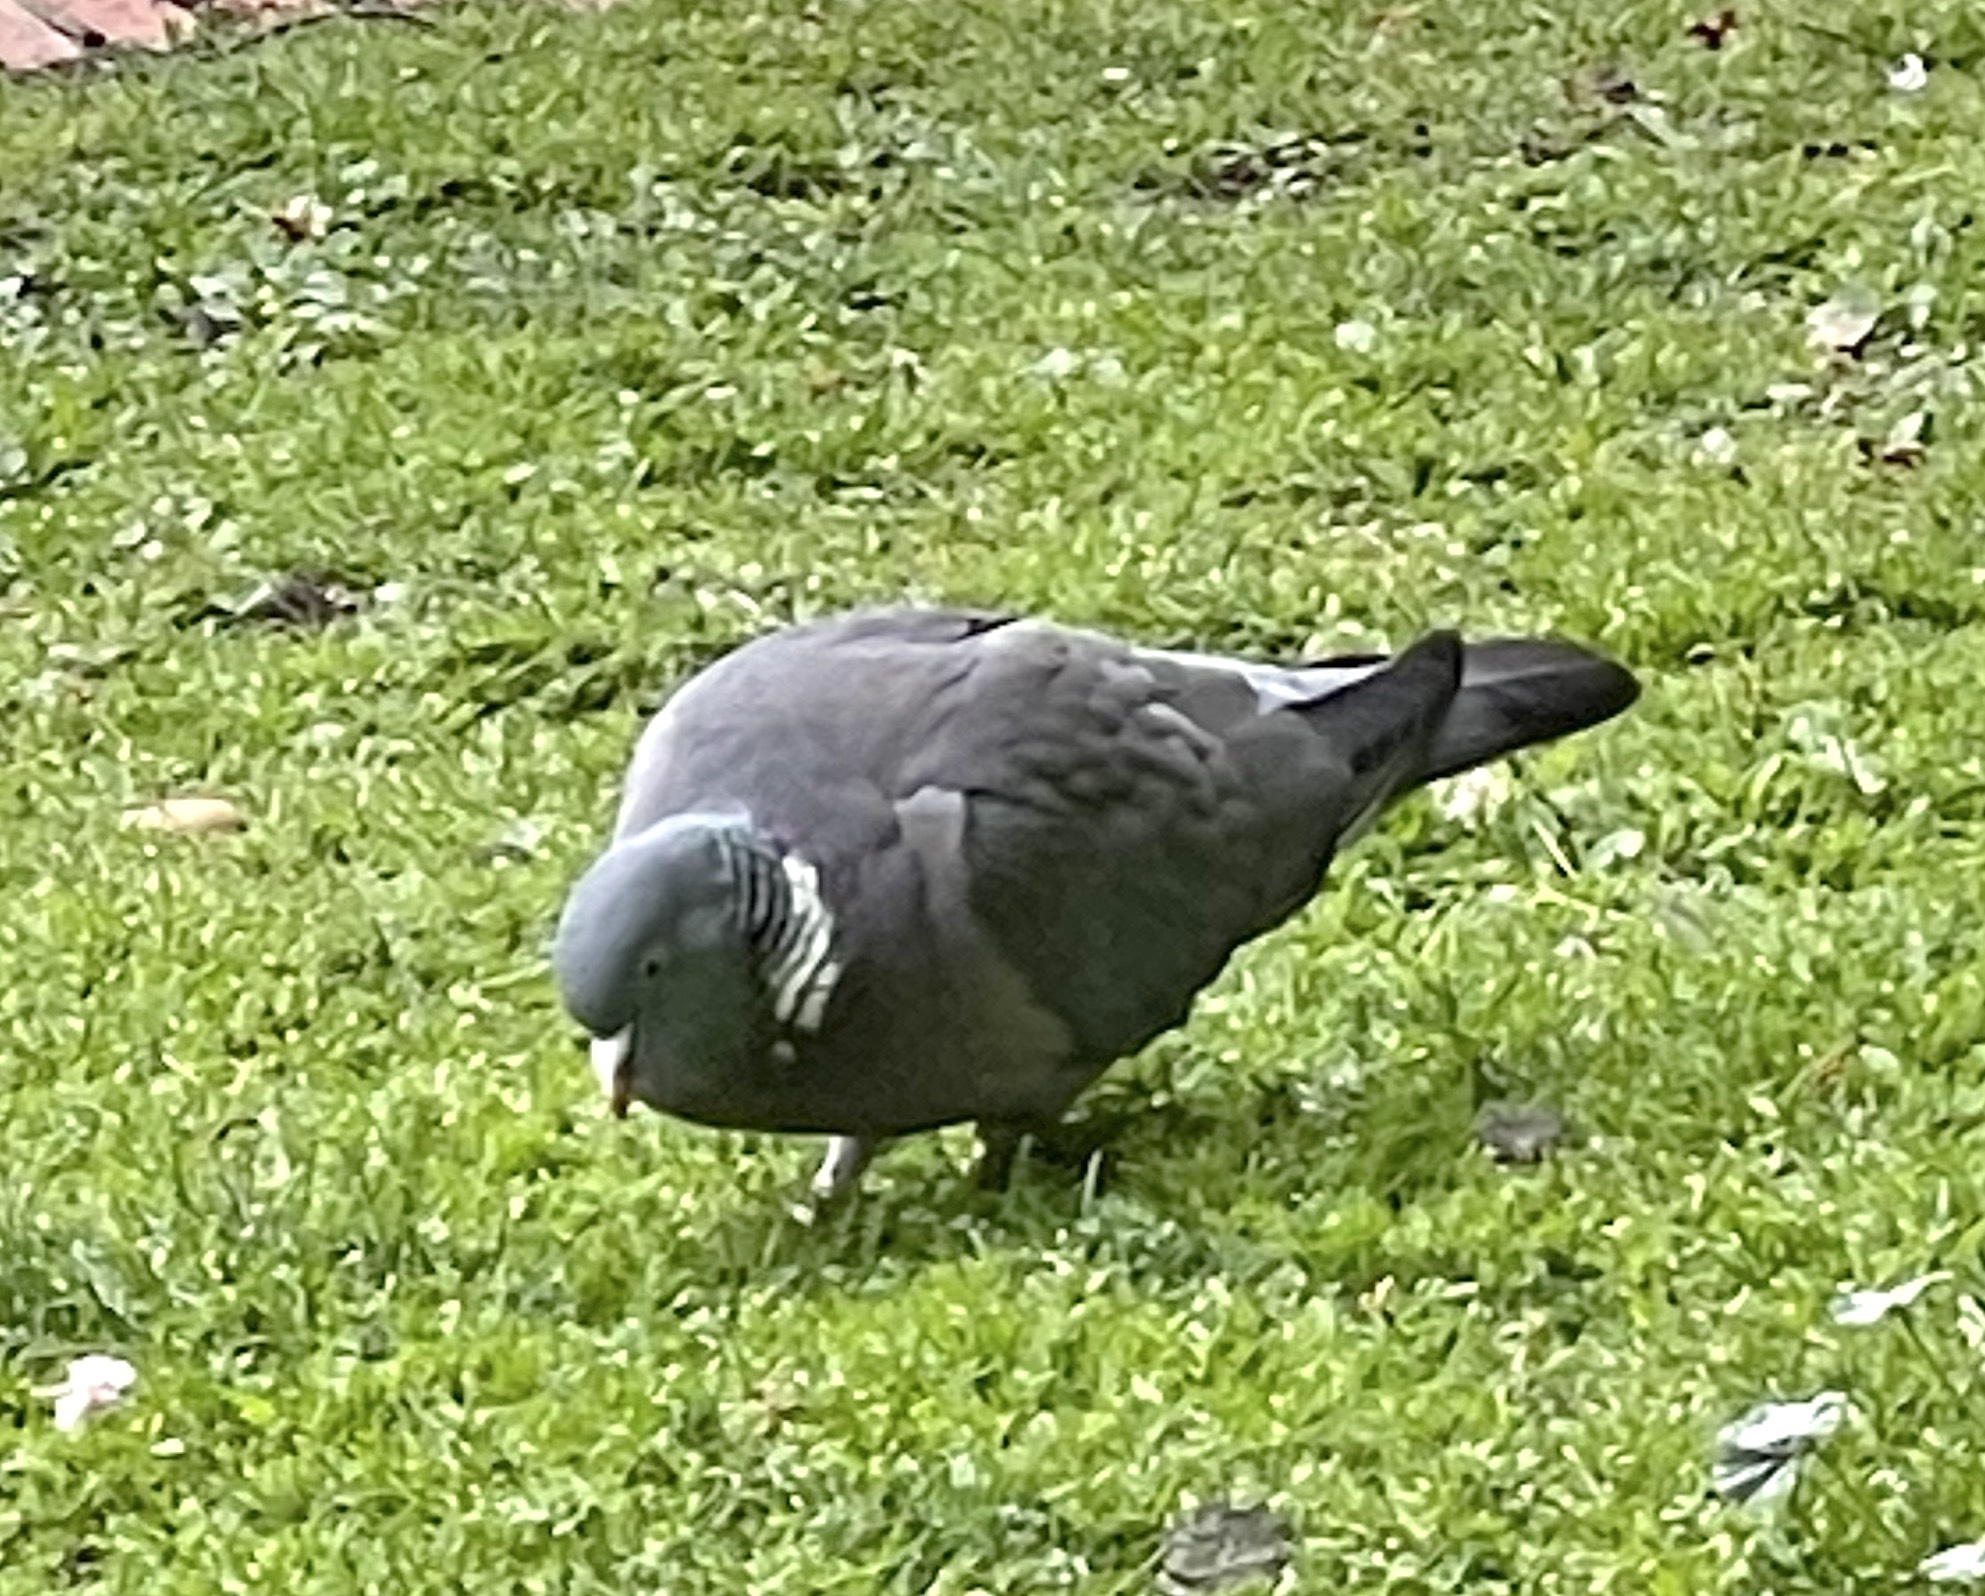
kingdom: Animalia
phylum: Chordata
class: Aves
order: Columbiformes
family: Columbidae
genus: Columba
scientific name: Columba palumbus
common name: Common wood pigeon
